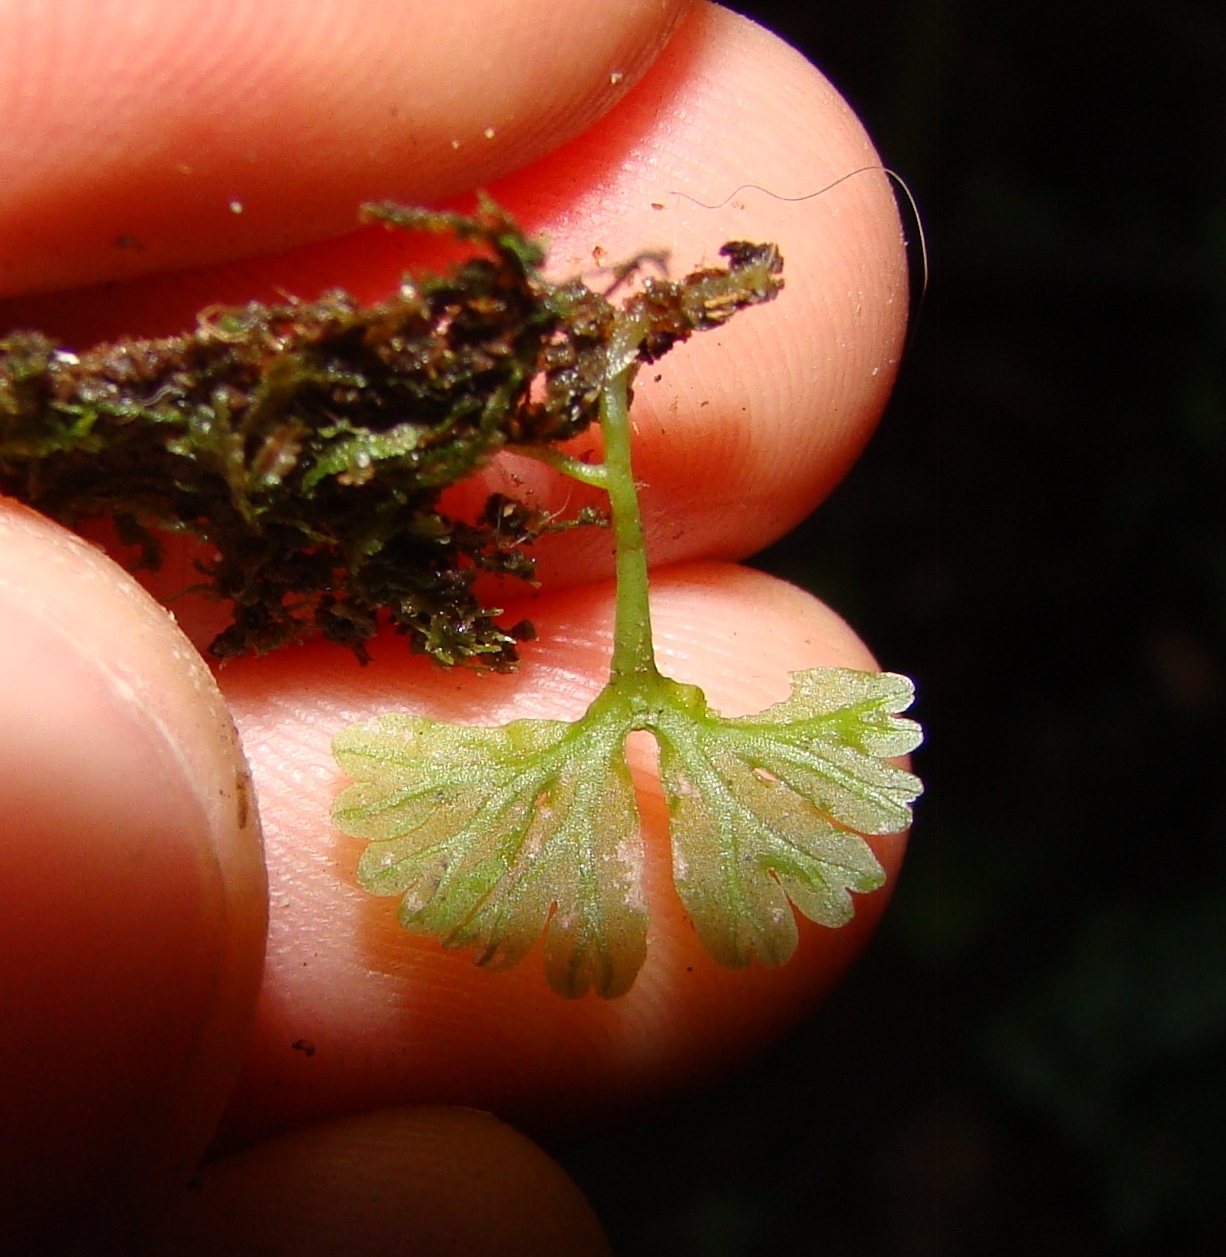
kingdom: Plantae
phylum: Marchantiophyta
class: Jungermanniopsida
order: Pallaviciniales
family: Hymenophytaceae
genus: Hymenophyton
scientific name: Hymenophyton flabellatum
